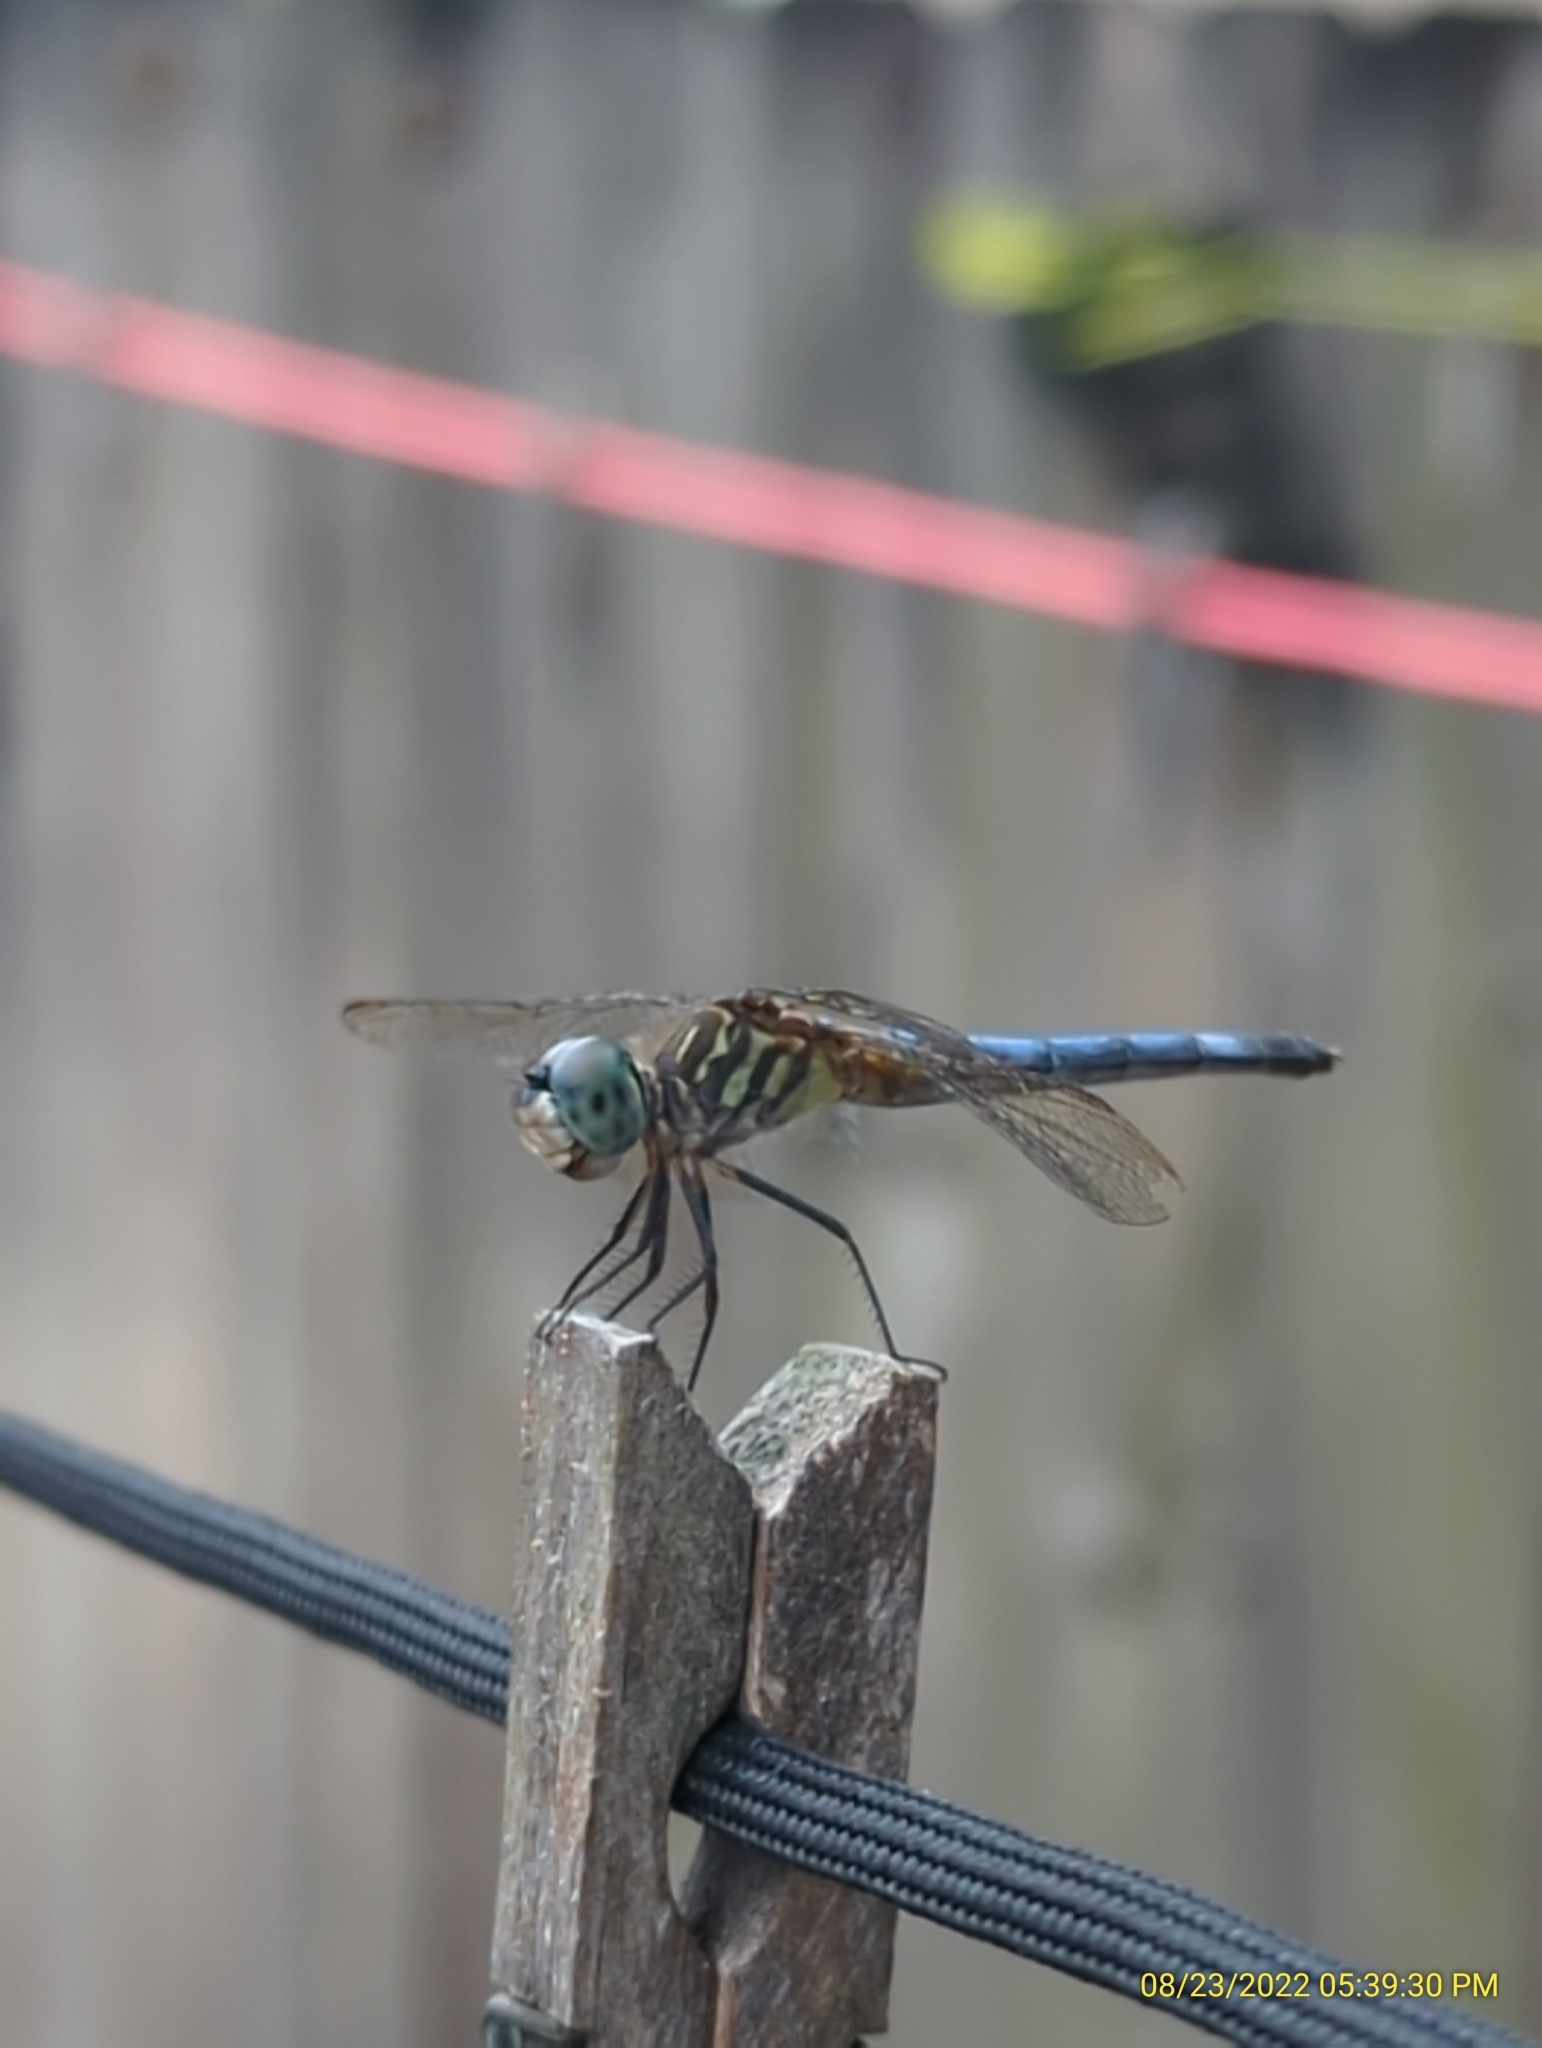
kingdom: Animalia
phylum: Arthropoda
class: Insecta
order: Odonata
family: Libellulidae
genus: Pachydiplax
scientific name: Pachydiplax longipennis
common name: Blue dasher
